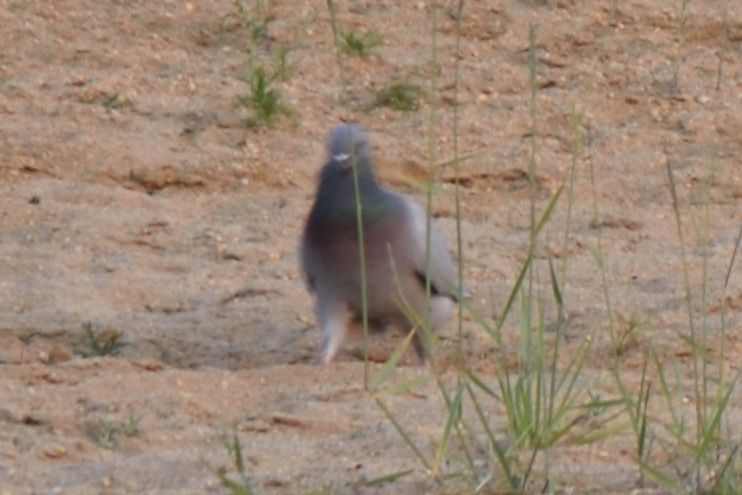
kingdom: Animalia
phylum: Chordata
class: Aves
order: Columbiformes
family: Columbidae
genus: Columba
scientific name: Columba rupestris
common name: Hill pigeon
